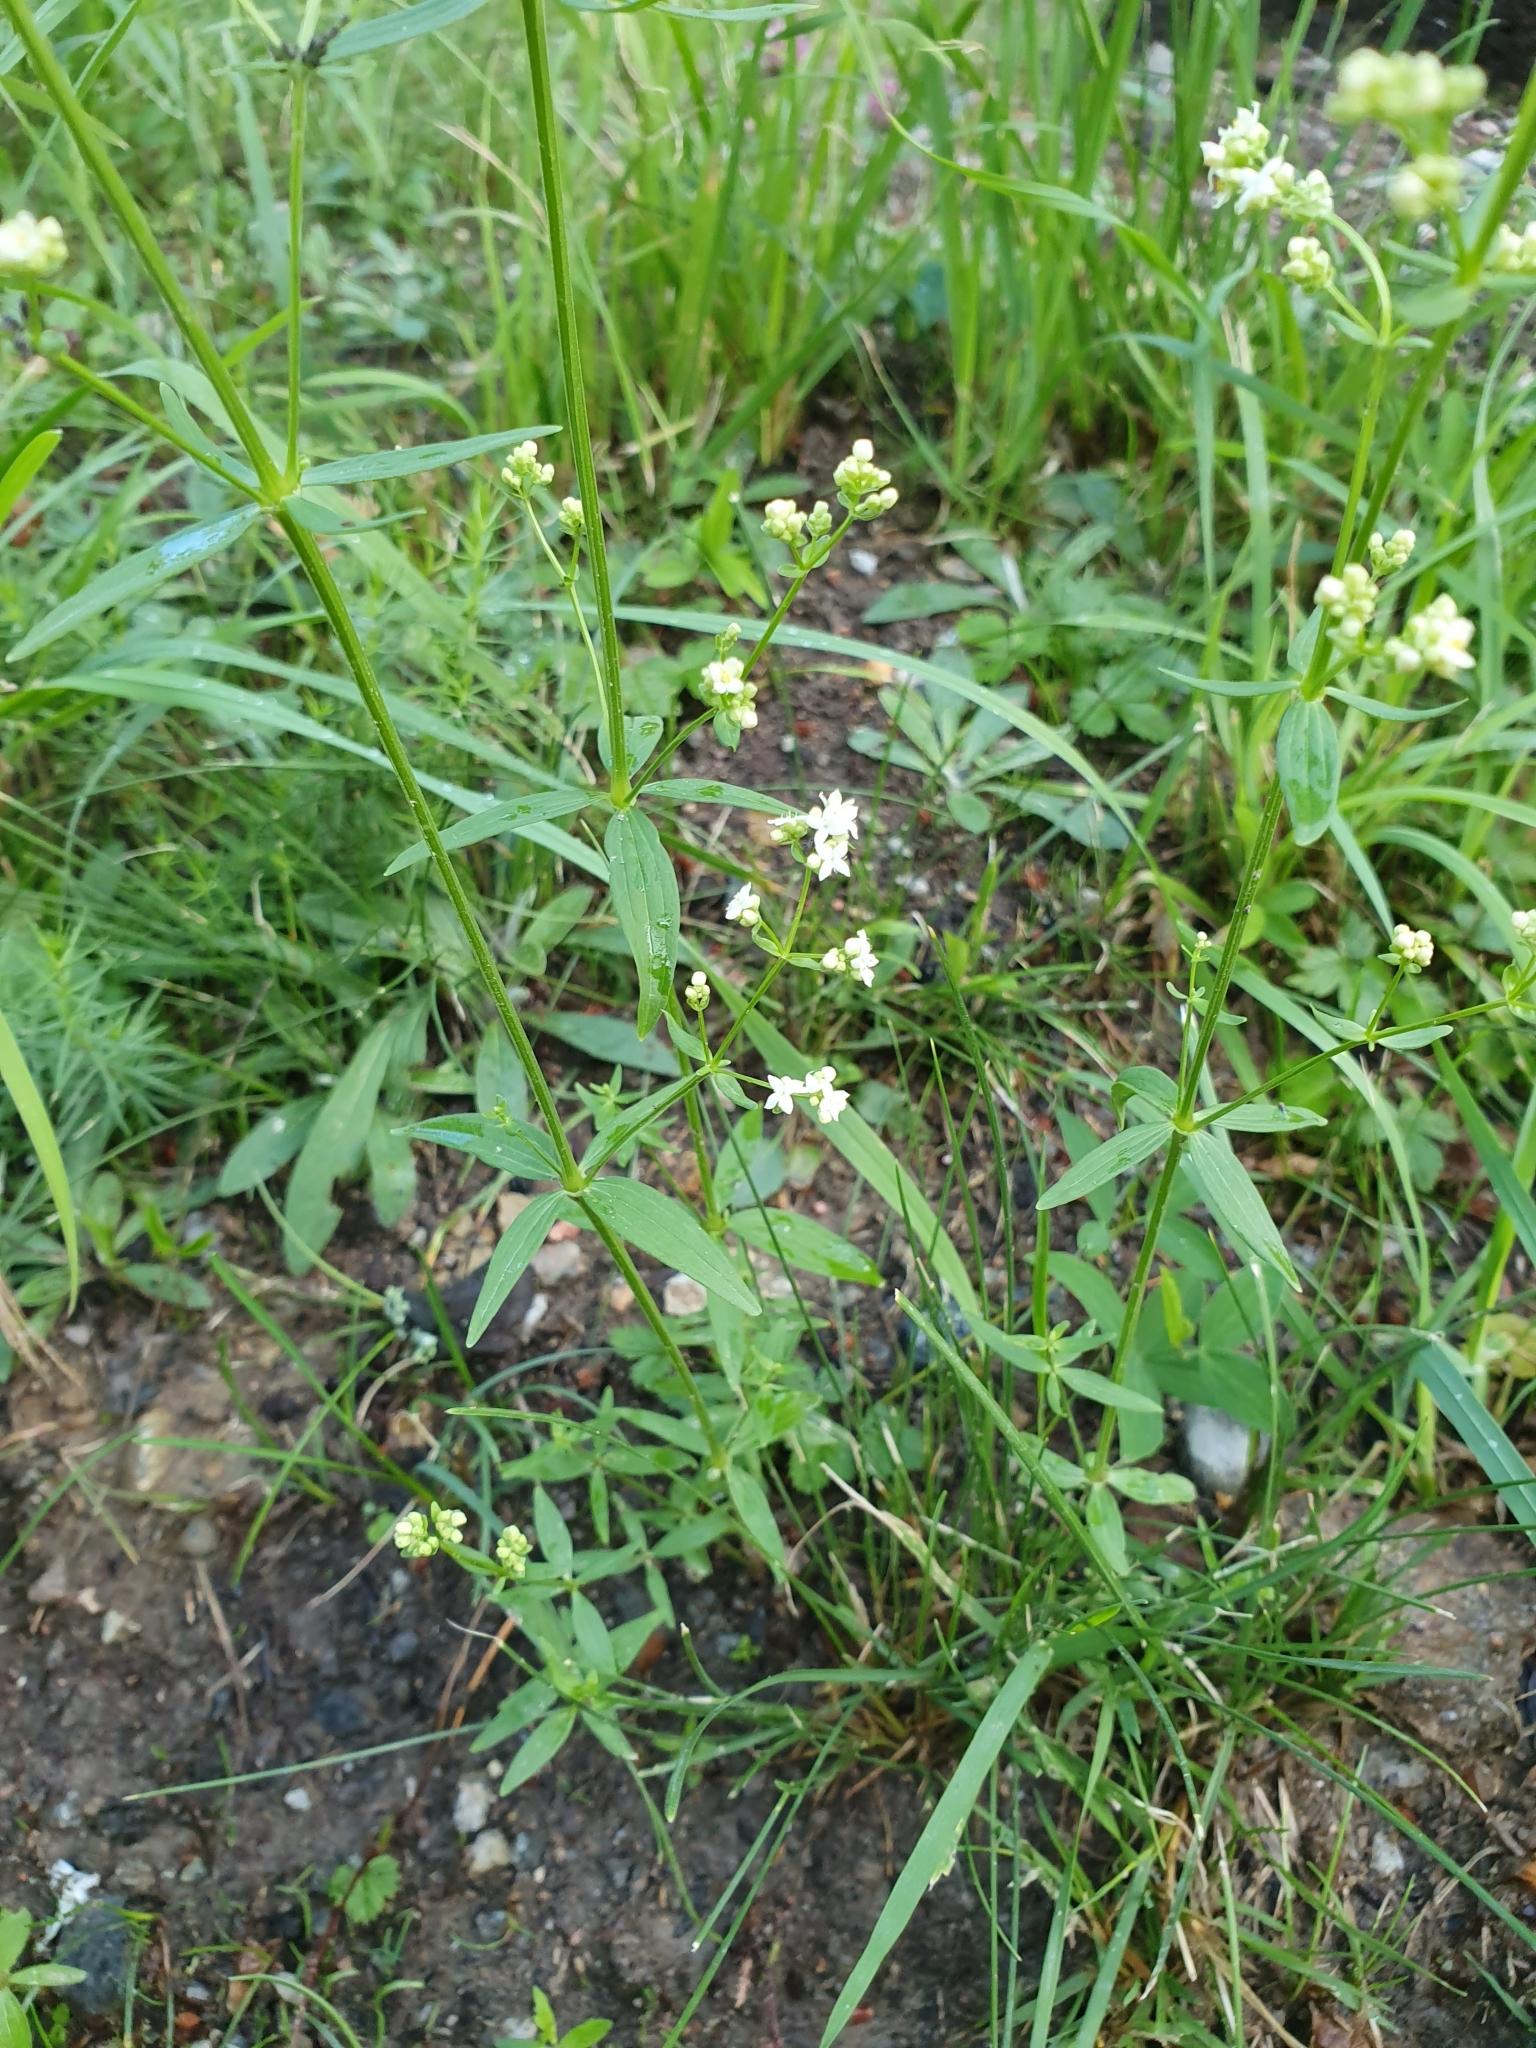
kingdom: Plantae
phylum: Tracheophyta
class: Magnoliopsida
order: Gentianales
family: Rubiaceae
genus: Galium
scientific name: Galium boreale
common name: Northern bedstraw
